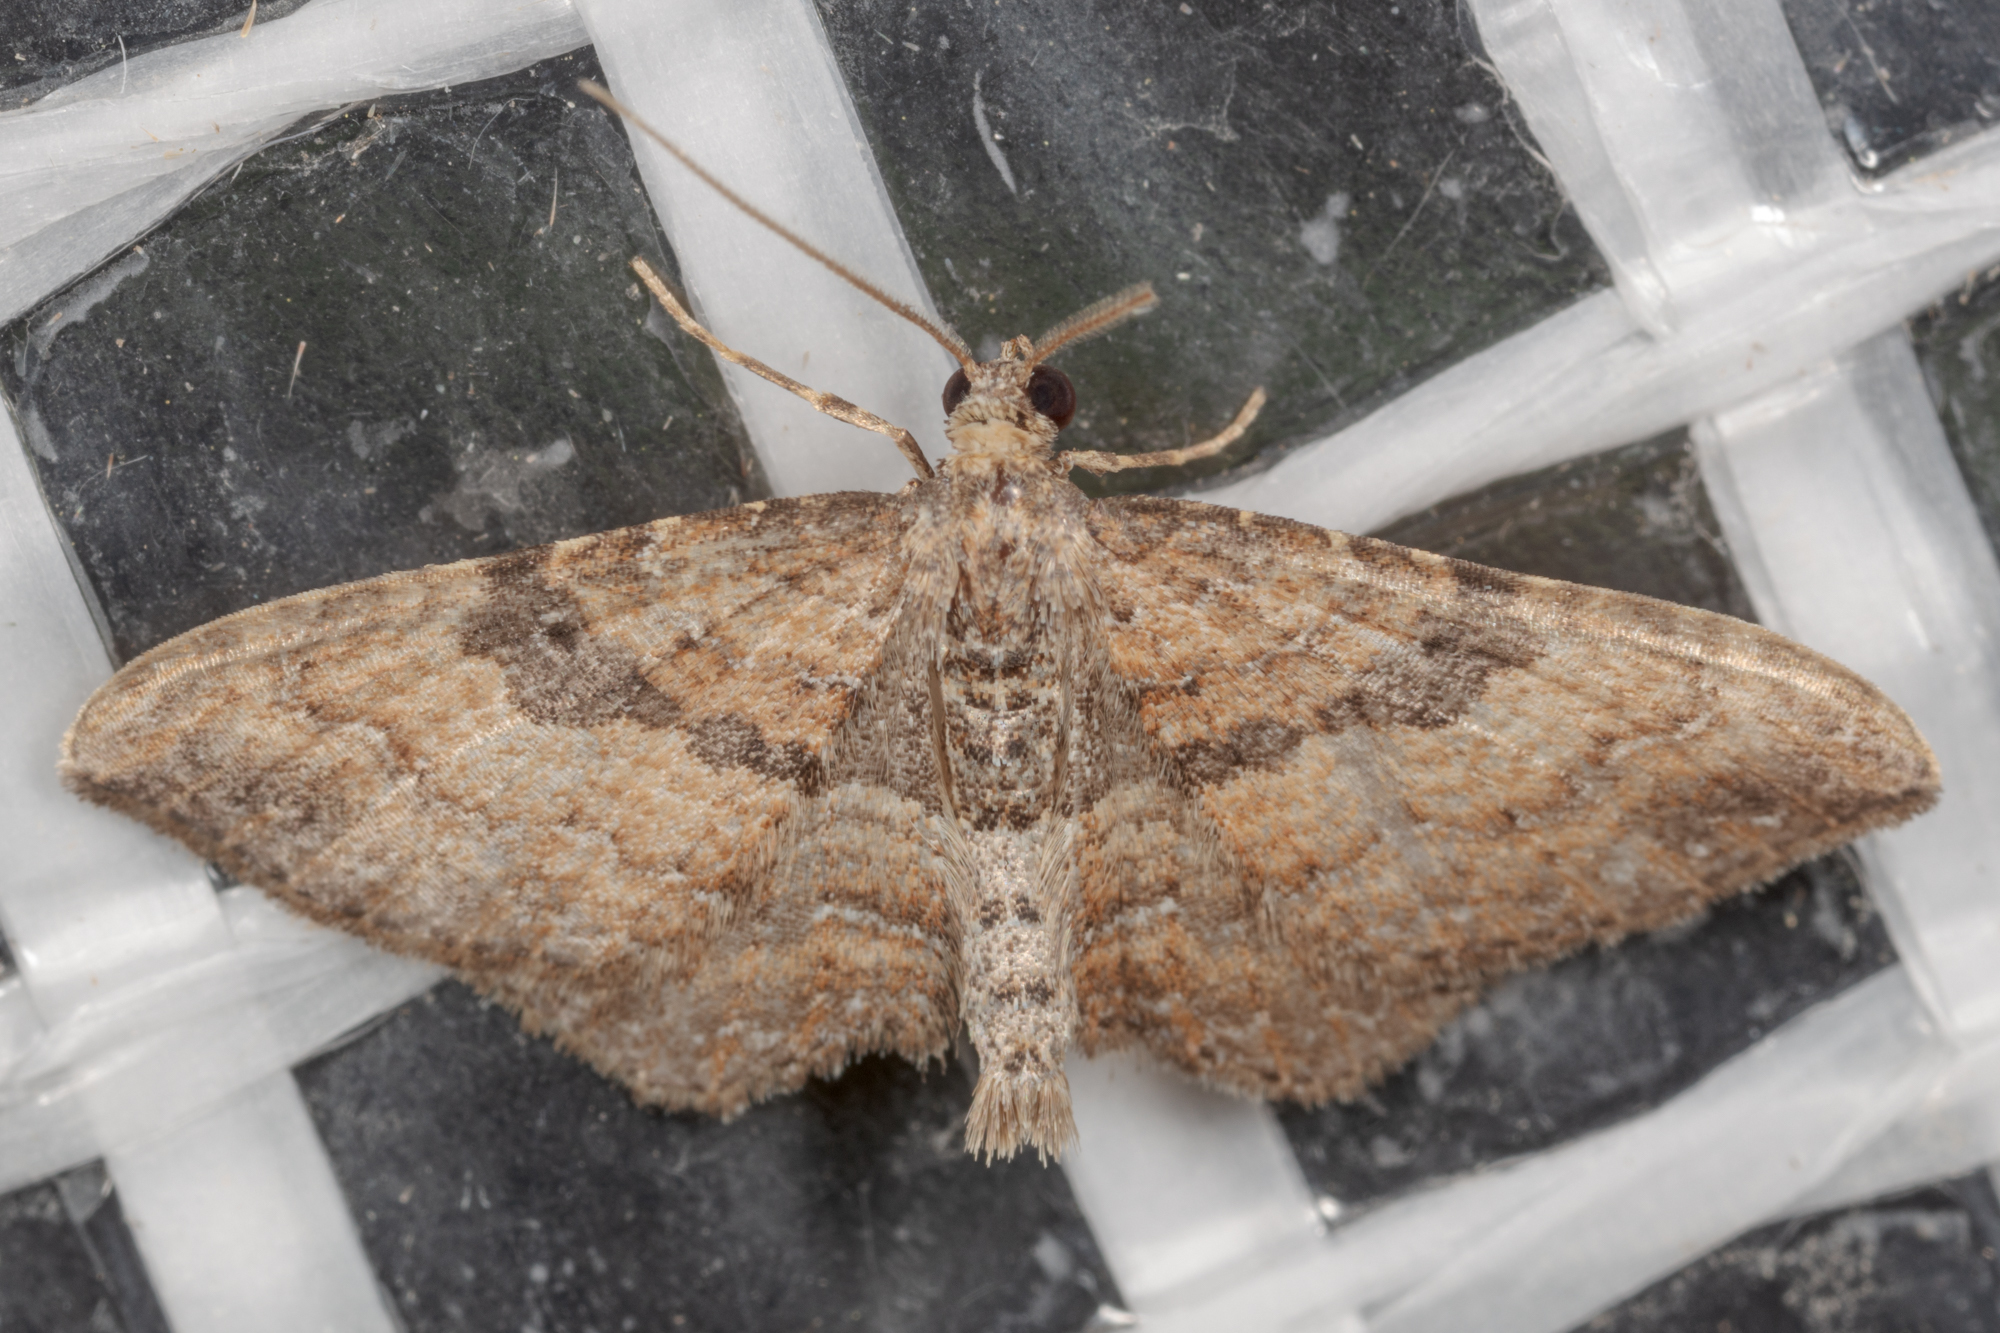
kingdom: Animalia
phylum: Arthropoda
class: Insecta
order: Lepidoptera
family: Geometridae
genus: Orthonama
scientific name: Orthonama obstipata
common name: The gem
